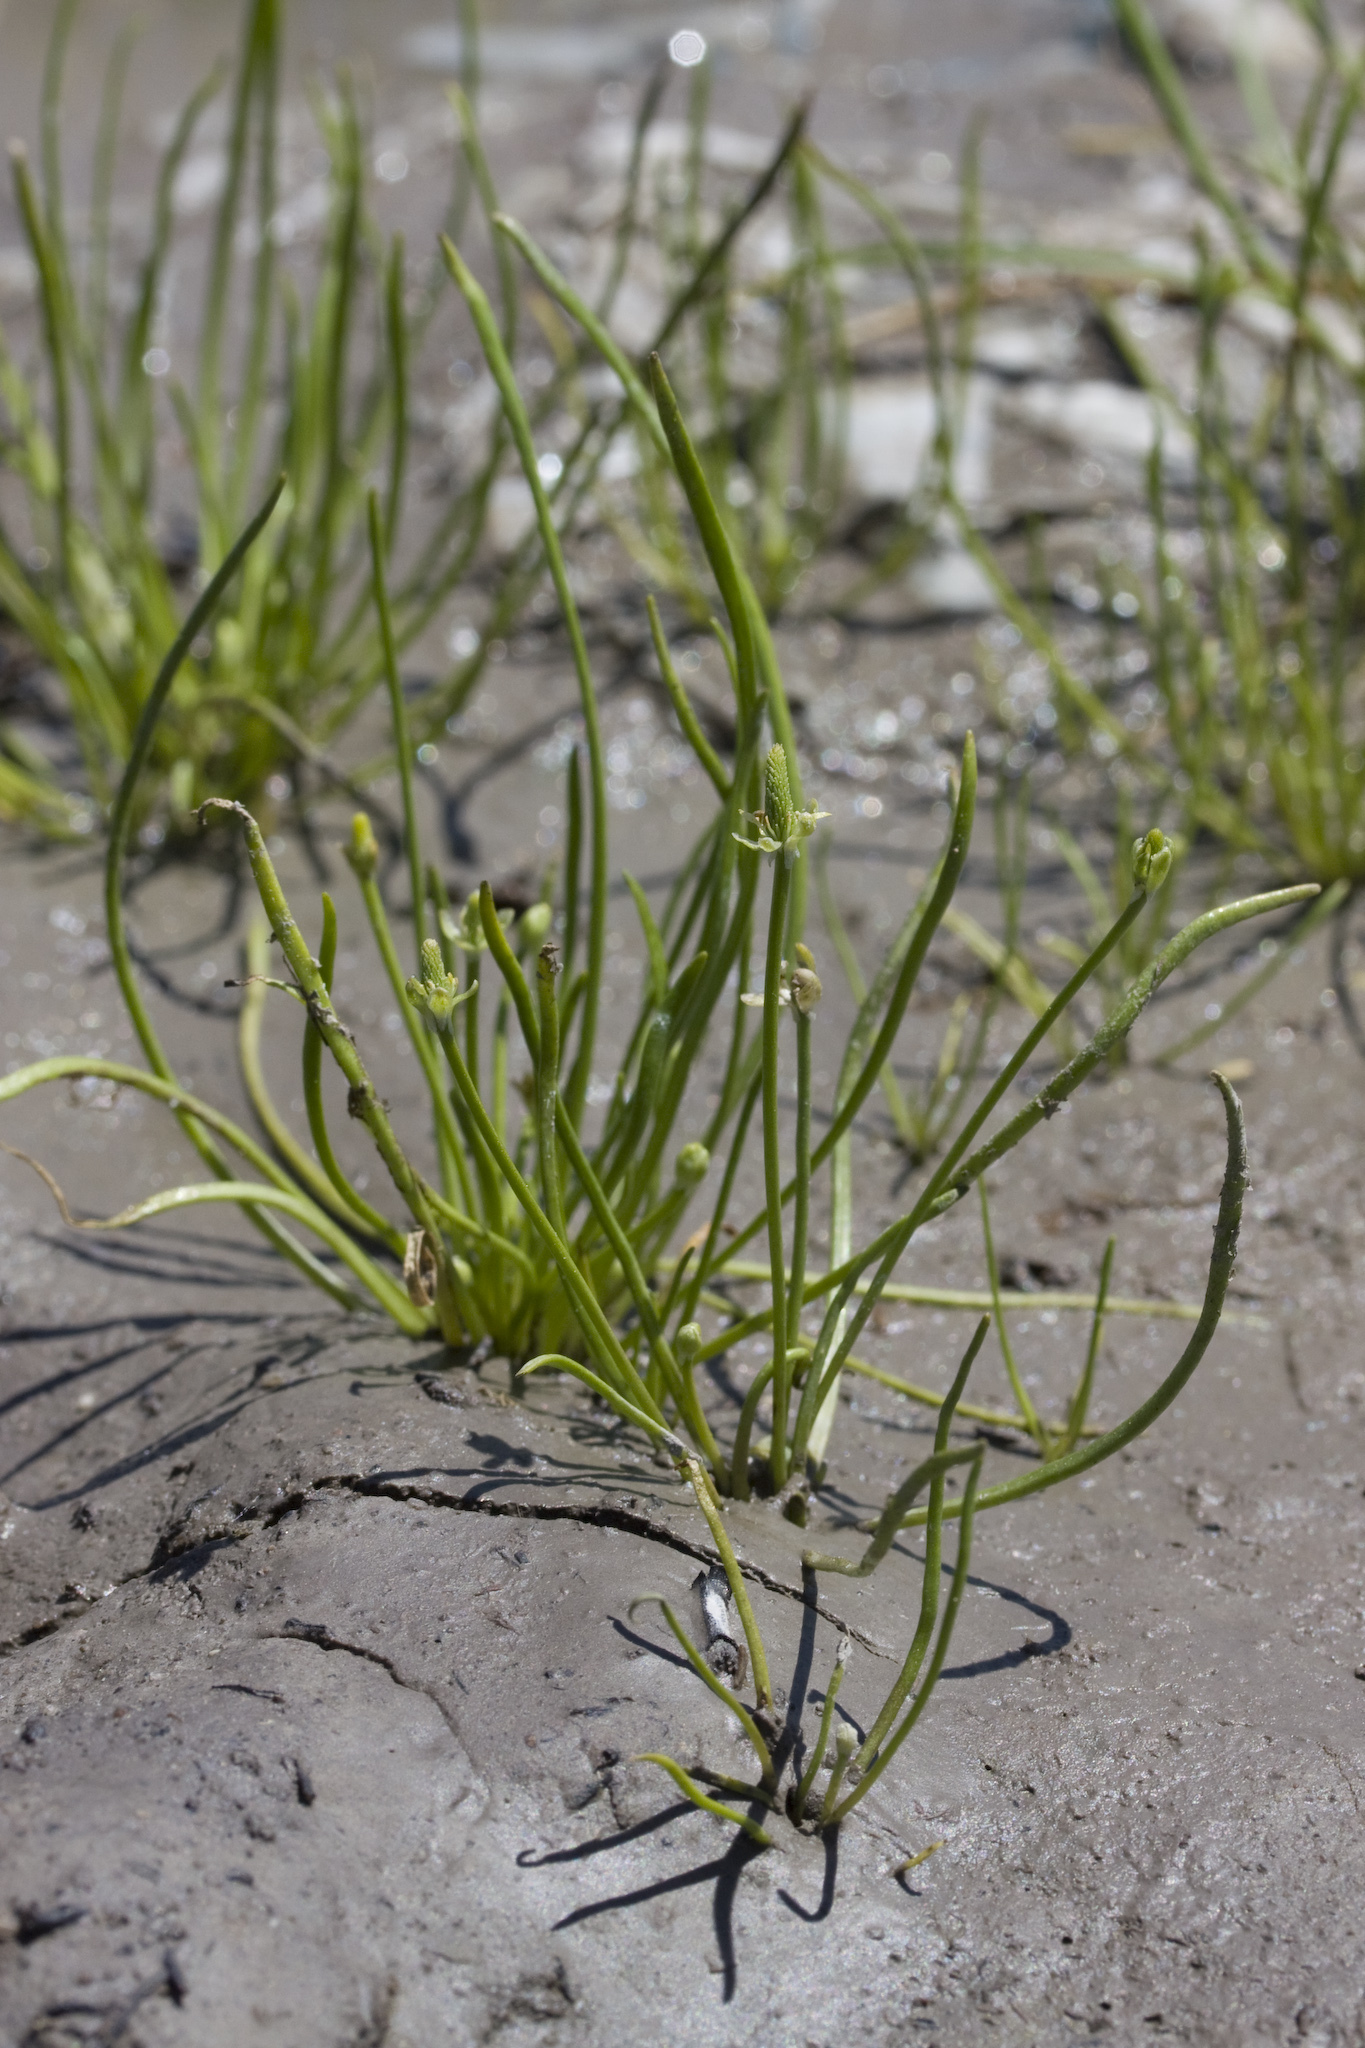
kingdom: Plantae
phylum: Tracheophyta
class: Magnoliopsida
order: Ranunculales
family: Ranunculaceae
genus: Myosurus
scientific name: Myosurus minimus
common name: Mousetail
